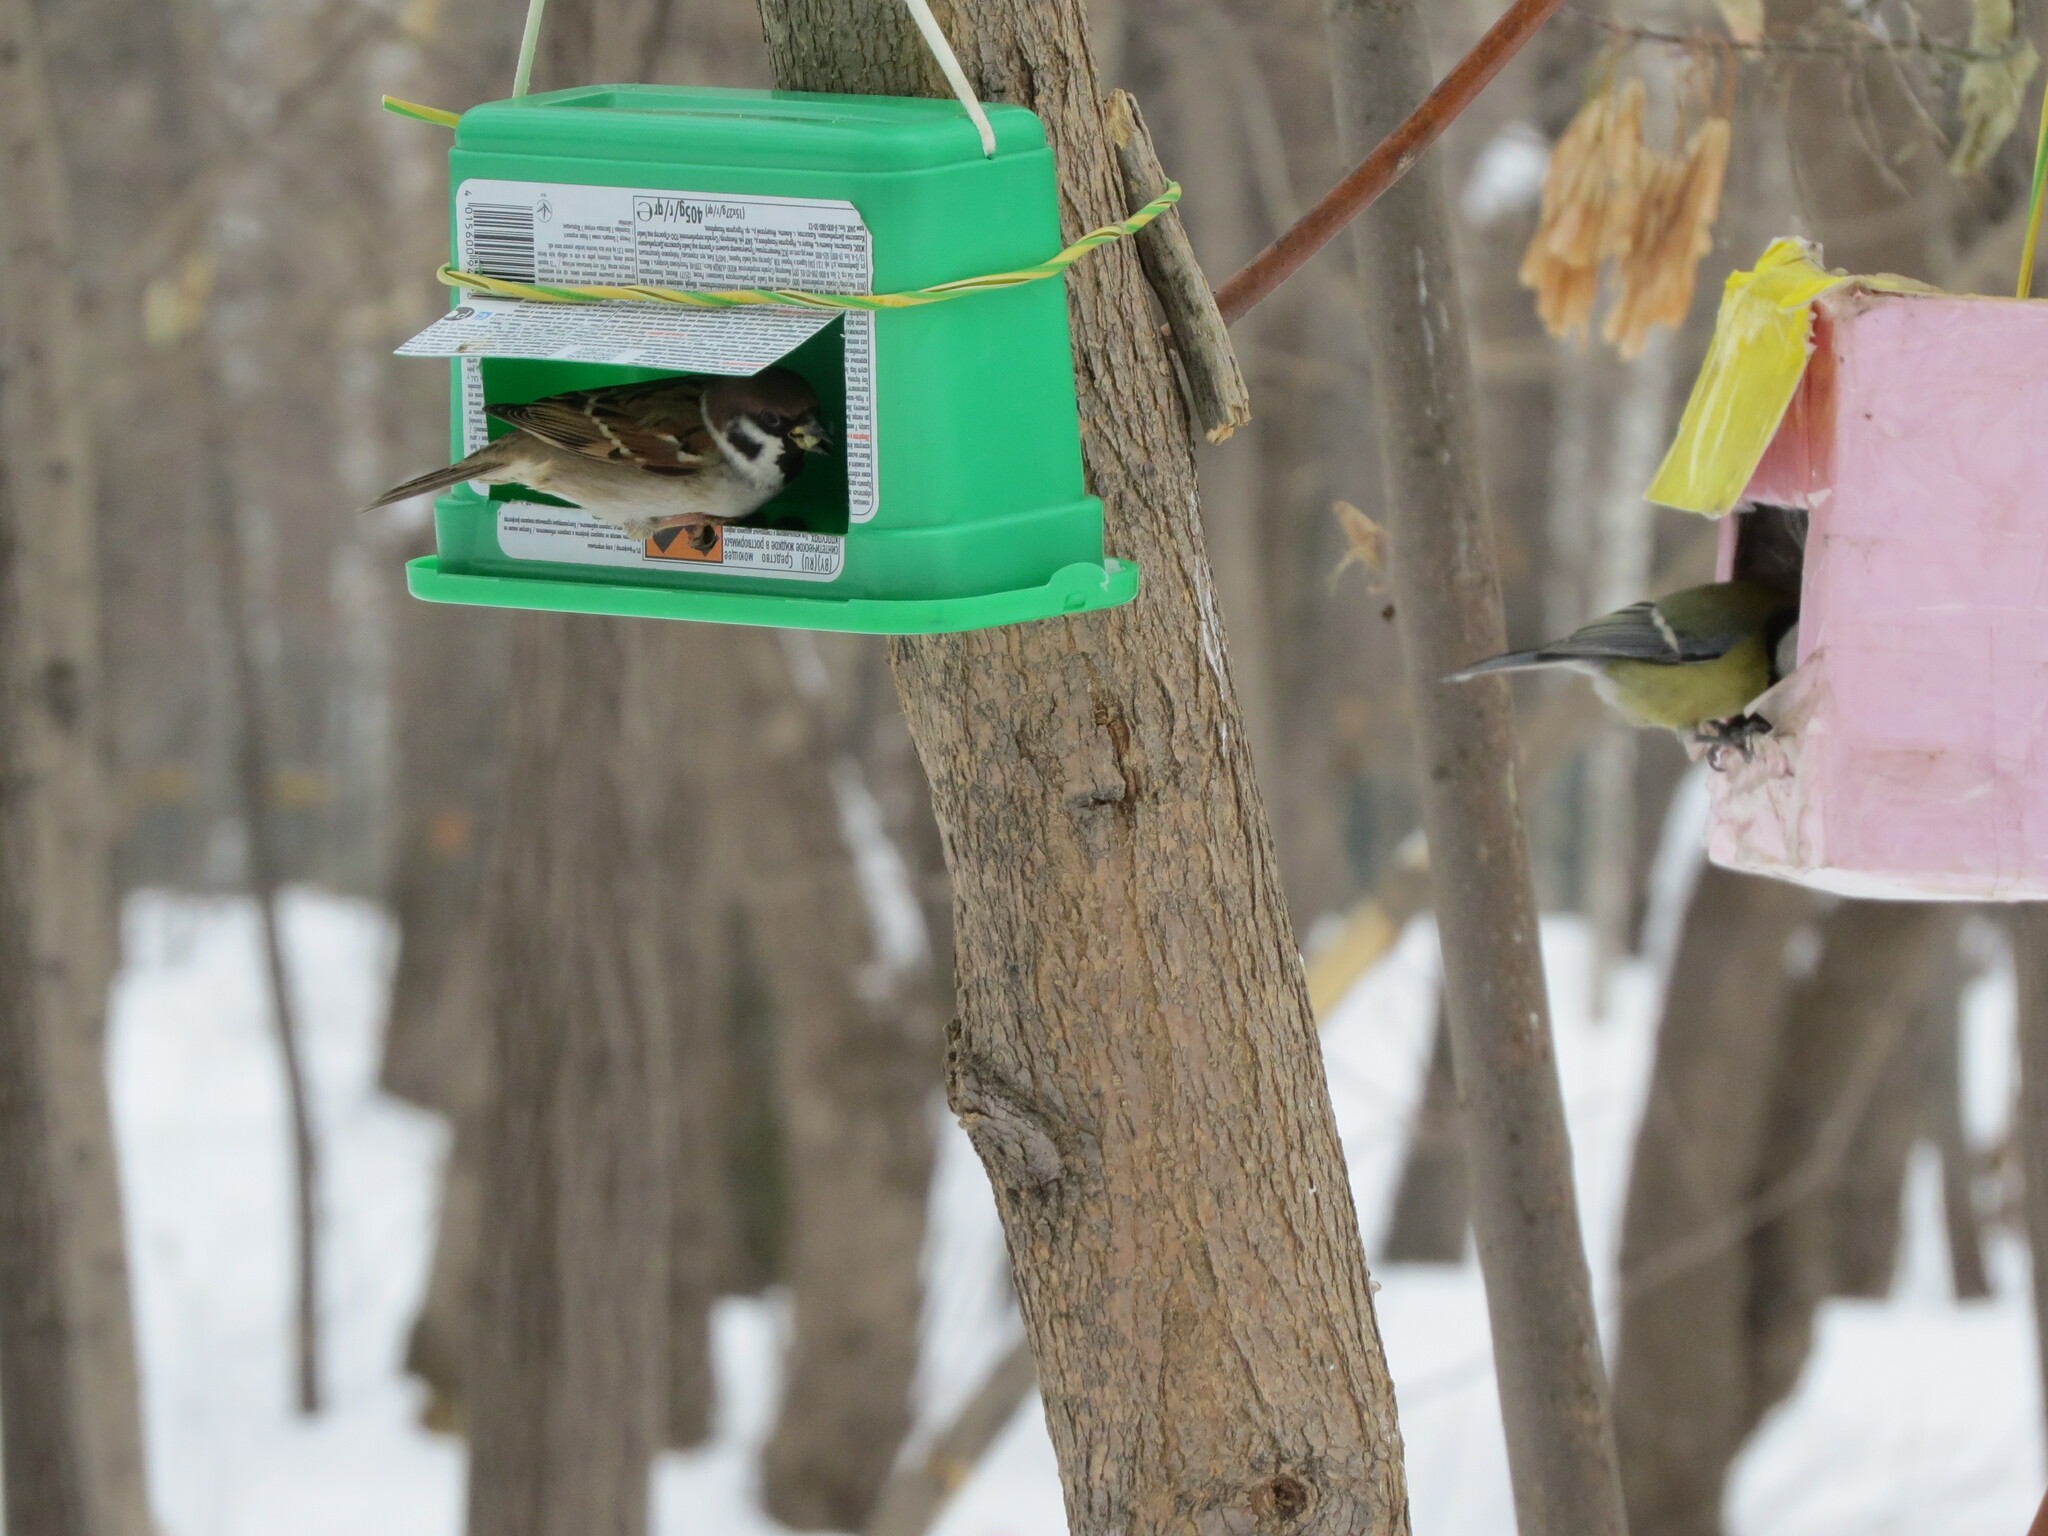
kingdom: Animalia
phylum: Chordata
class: Aves
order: Passeriformes
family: Paridae
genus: Parus
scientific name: Parus major
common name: Great tit
